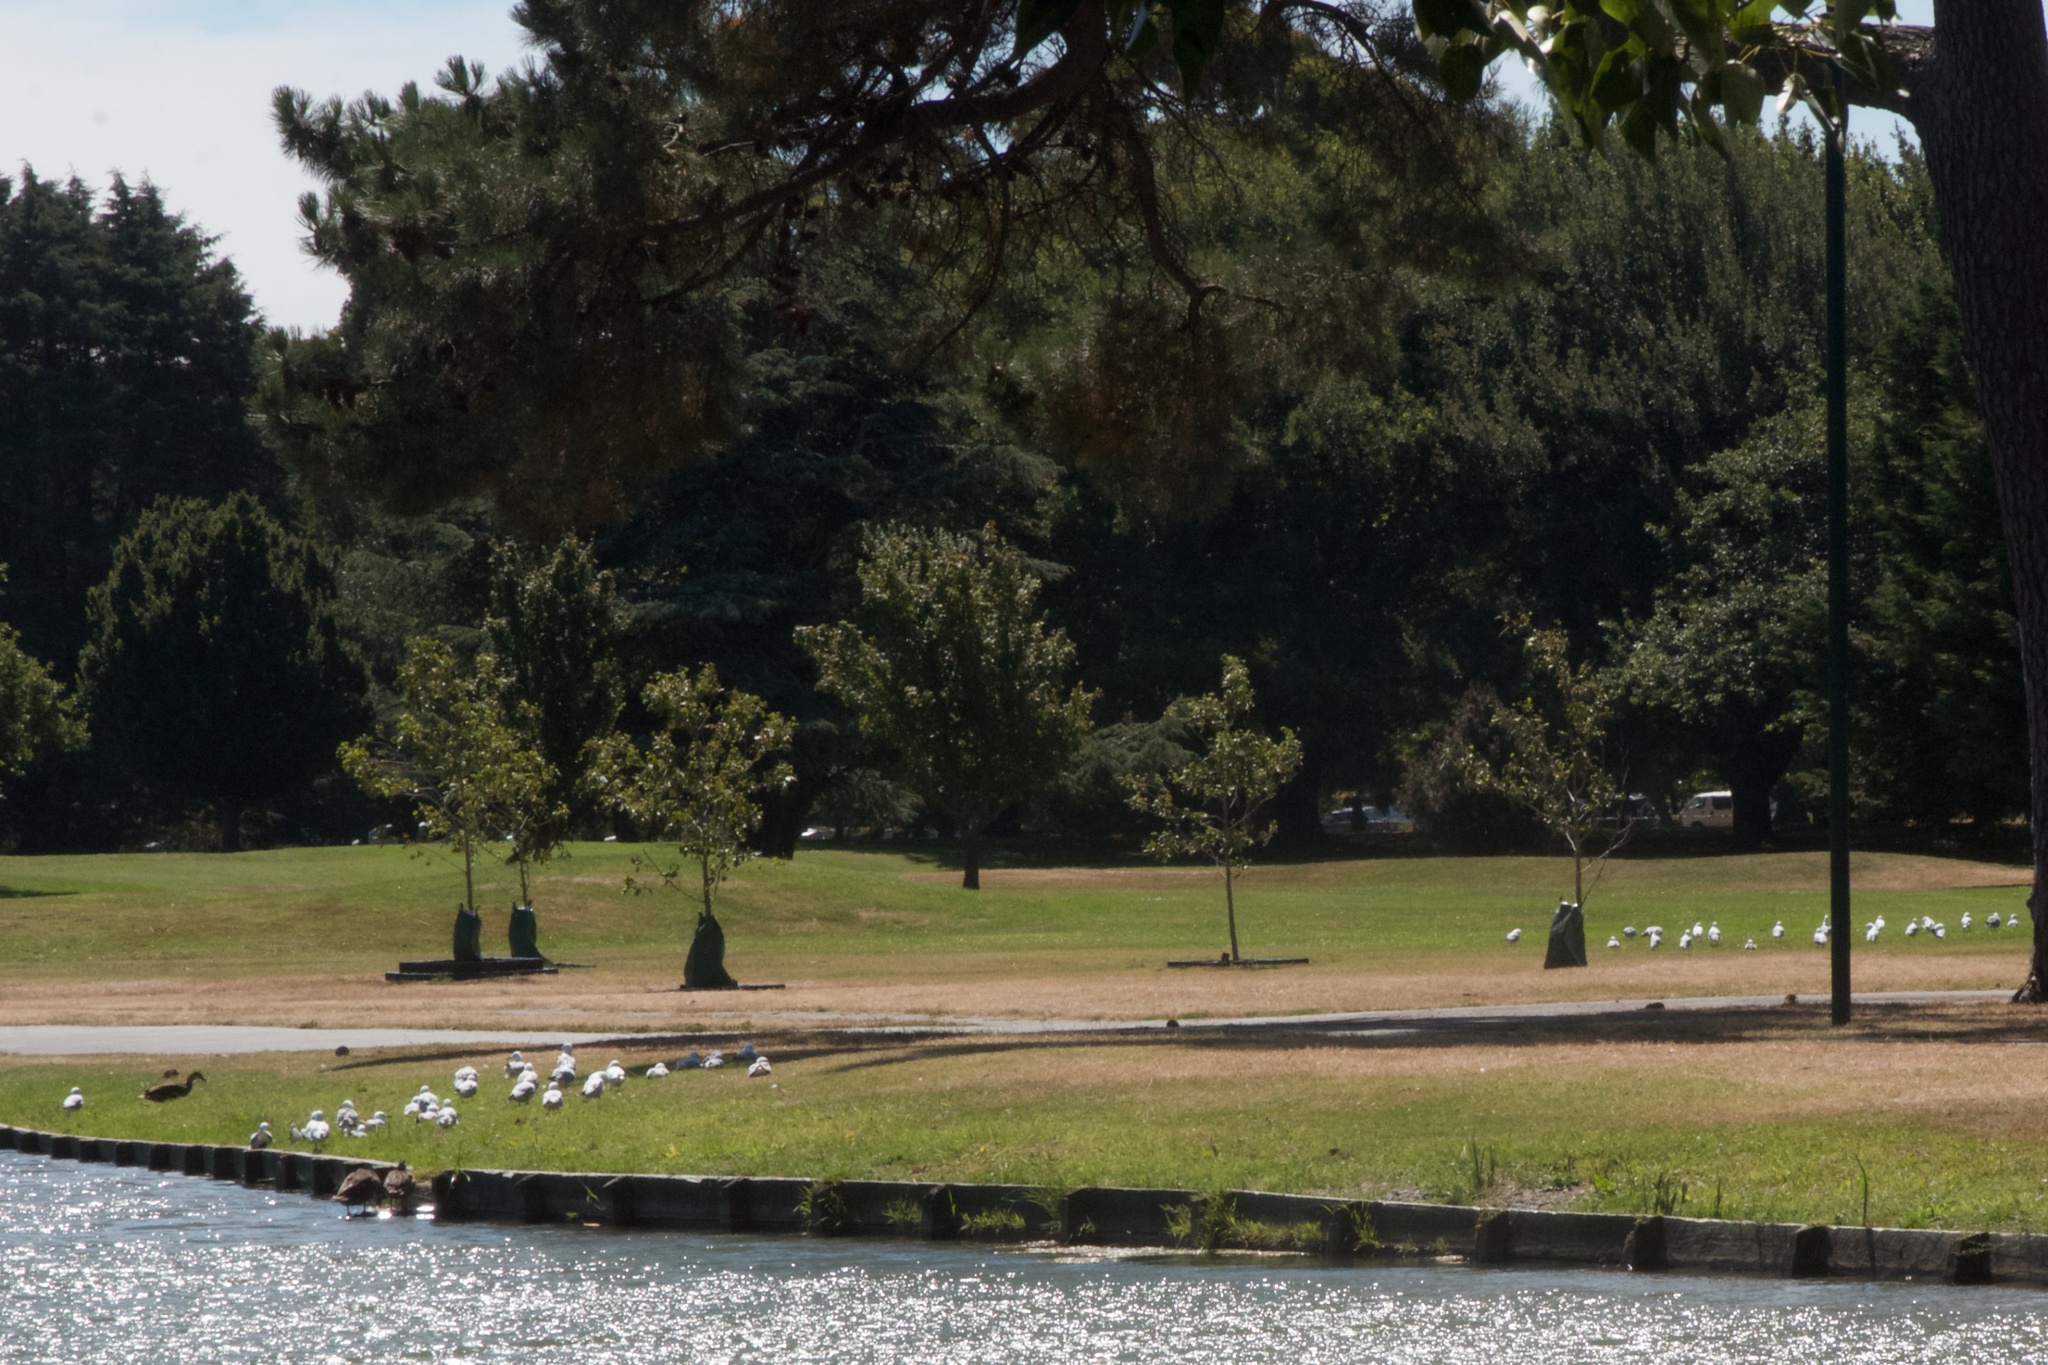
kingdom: Animalia
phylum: Chordata
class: Aves
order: Charadriiformes
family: Laridae
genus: Chroicocephalus
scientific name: Chroicocephalus novaehollandiae
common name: Silver gull
